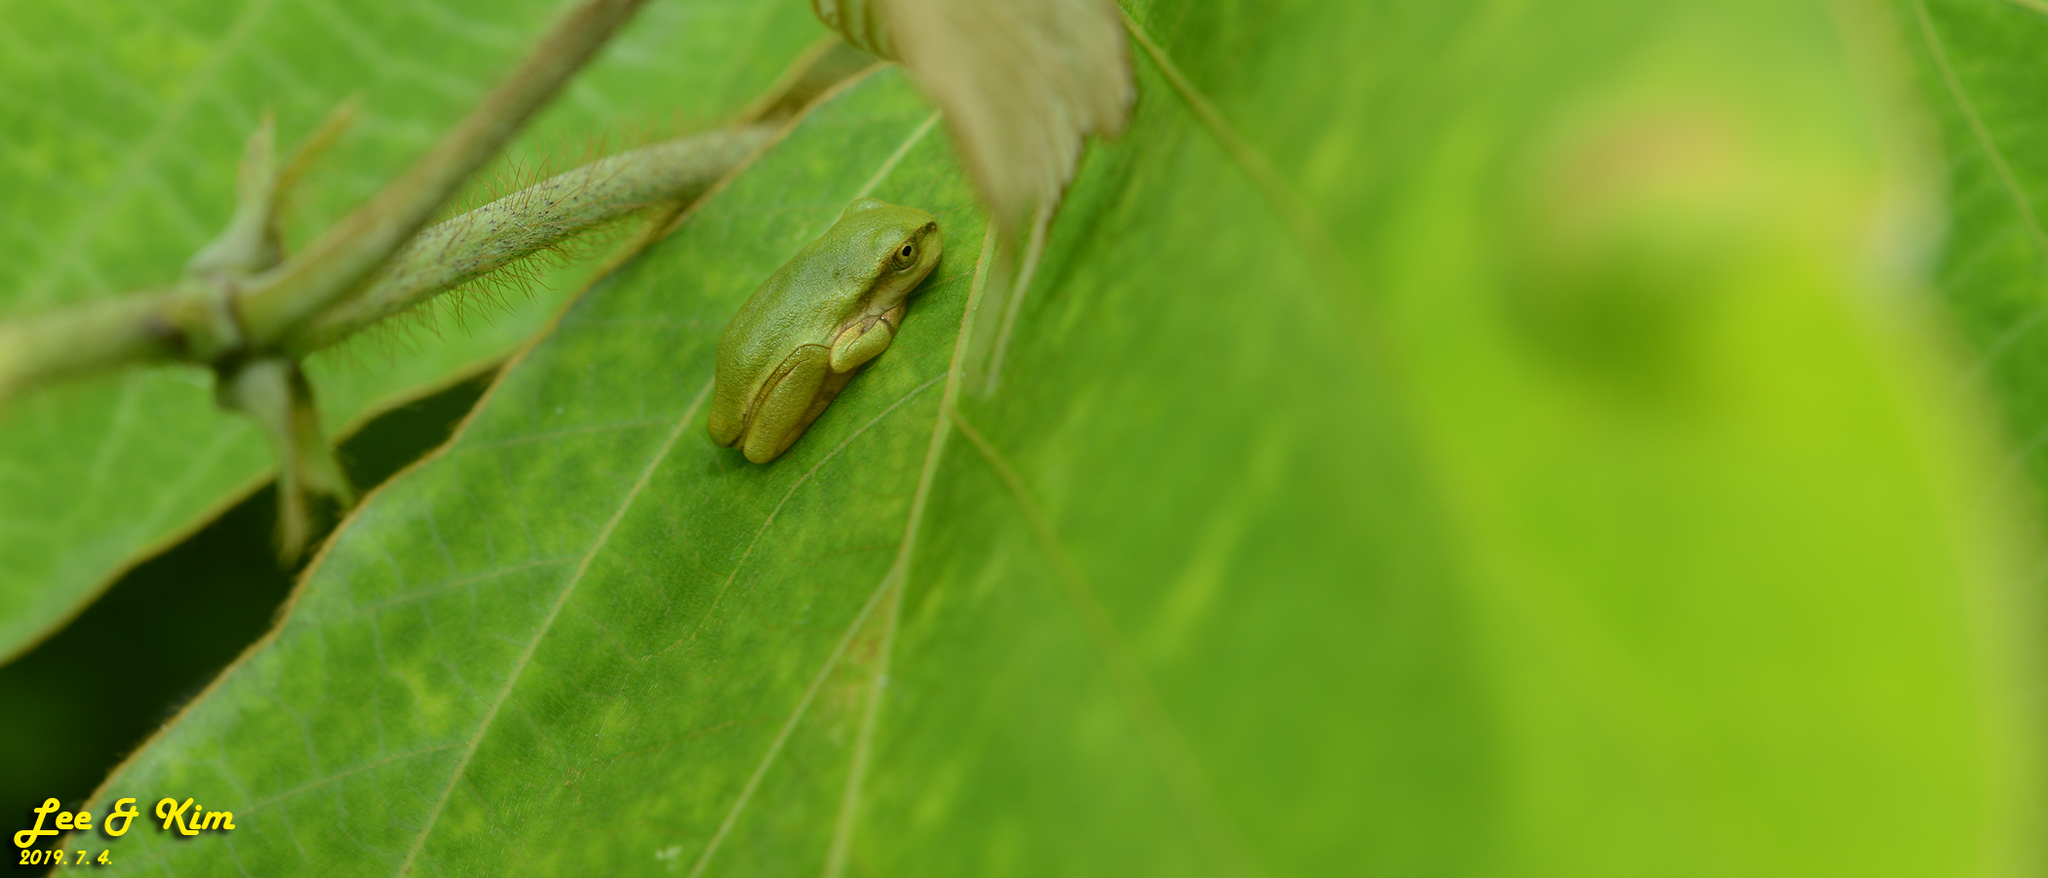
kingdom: Animalia
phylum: Chordata
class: Amphibia
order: Anura
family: Hylidae
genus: Dryophytes
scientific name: Dryophytes japonicus
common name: Japanese treefrog
